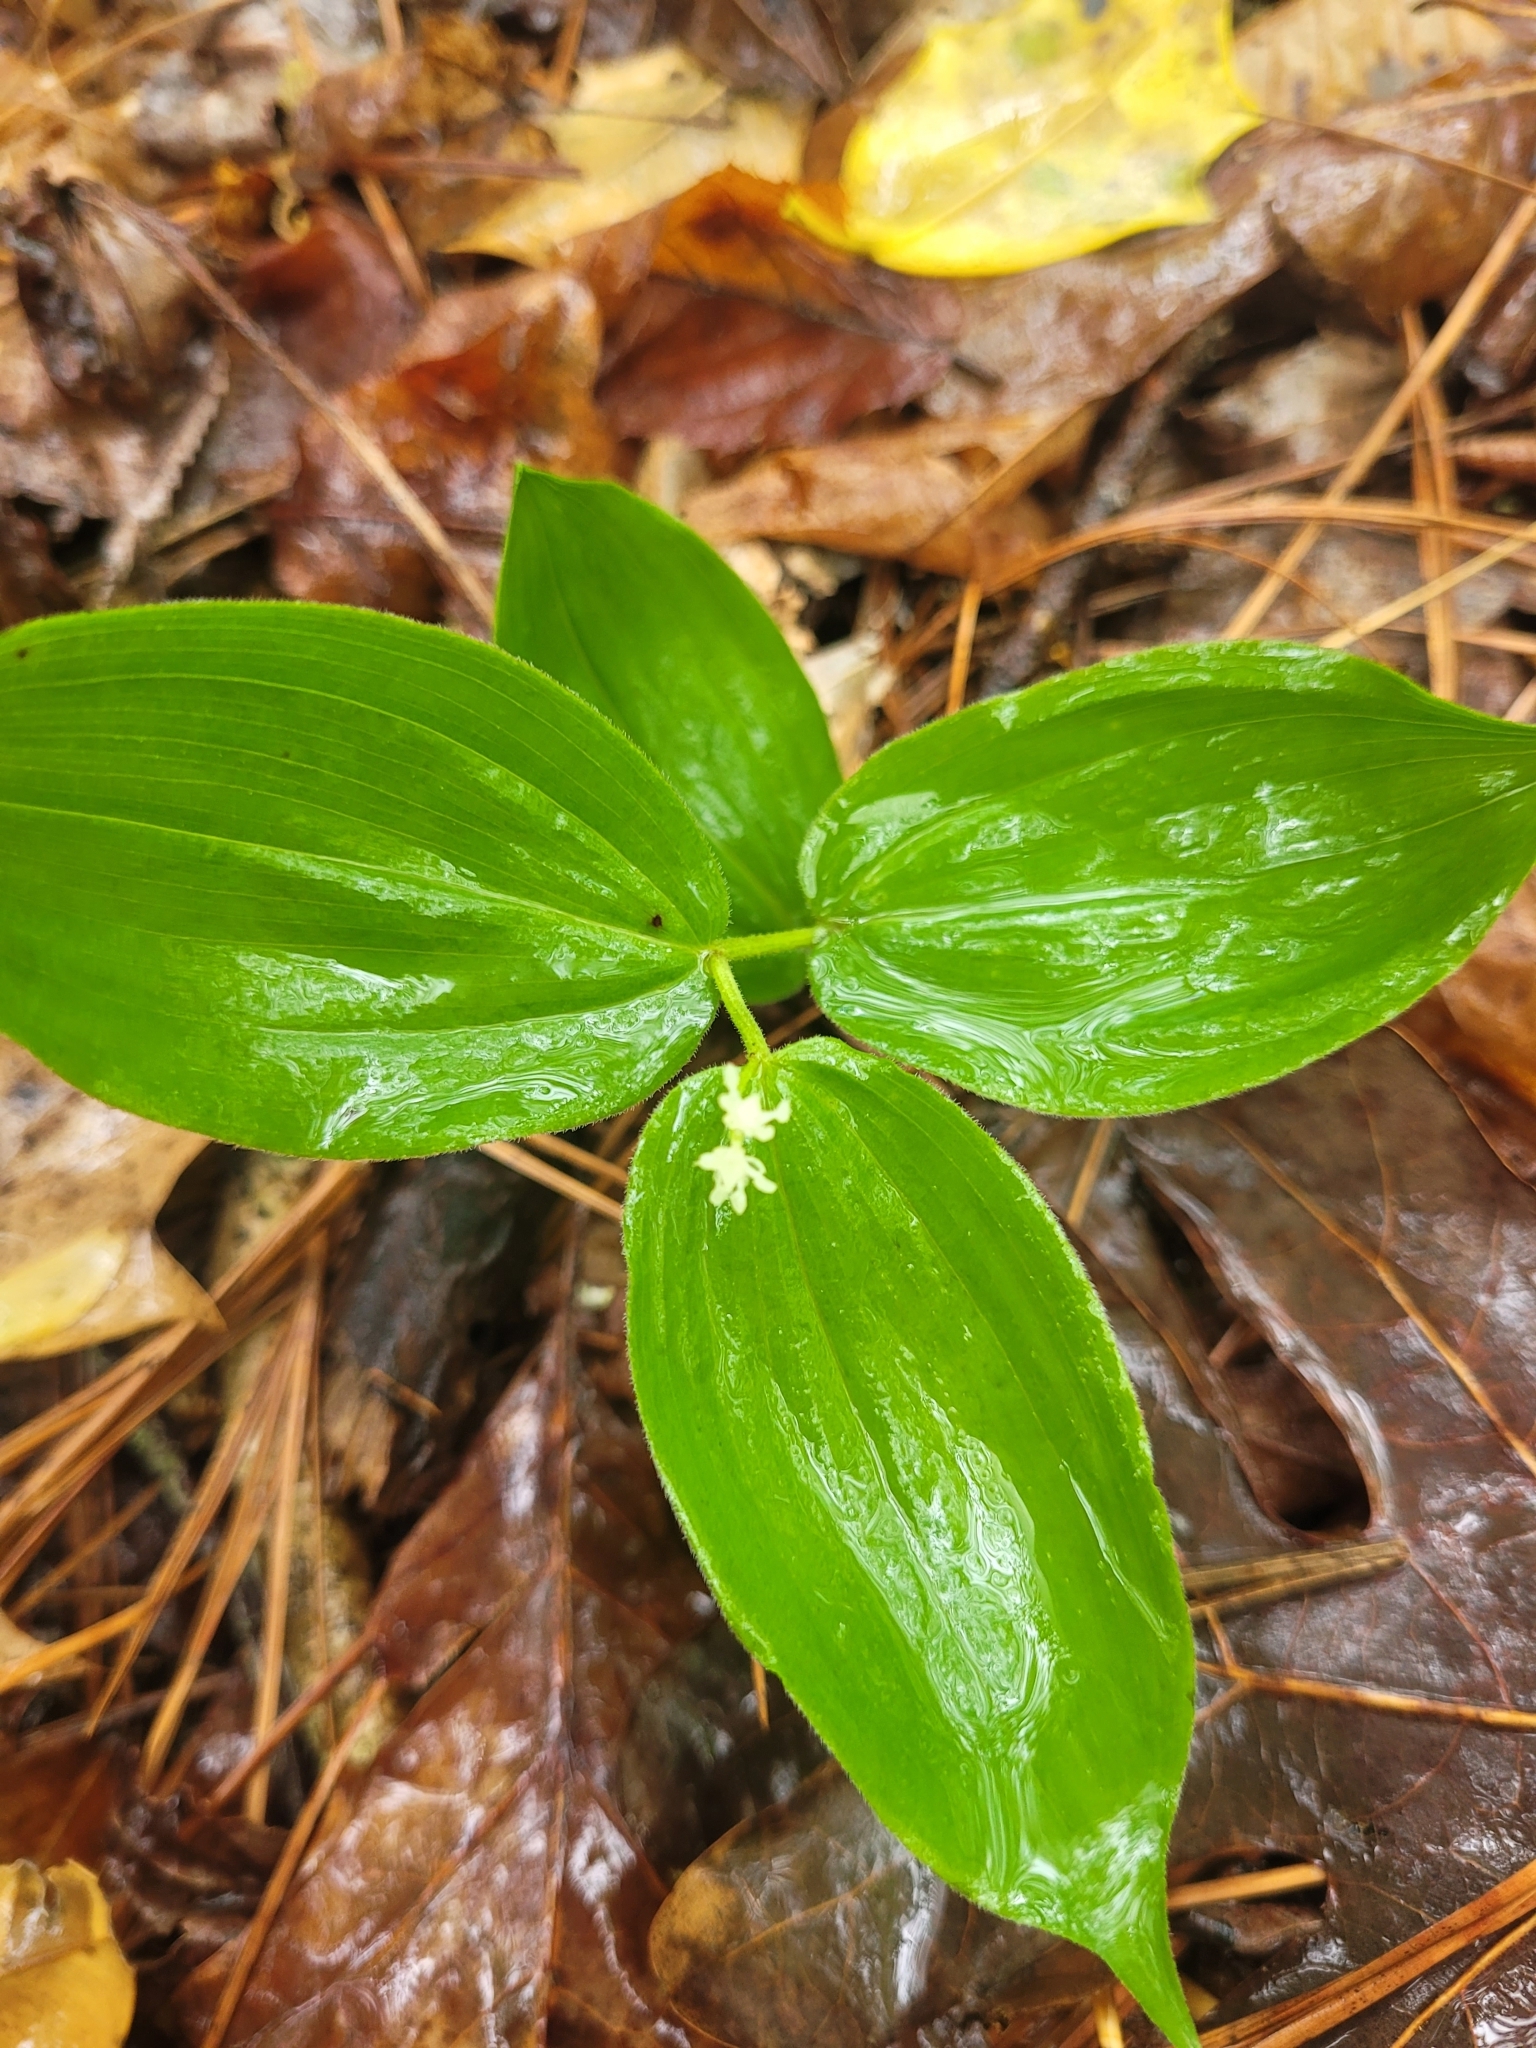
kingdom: Plantae
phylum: Tracheophyta
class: Liliopsida
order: Asparagales
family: Asparagaceae
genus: Maianthemum
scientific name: Maianthemum racemosum
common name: False spikenard
